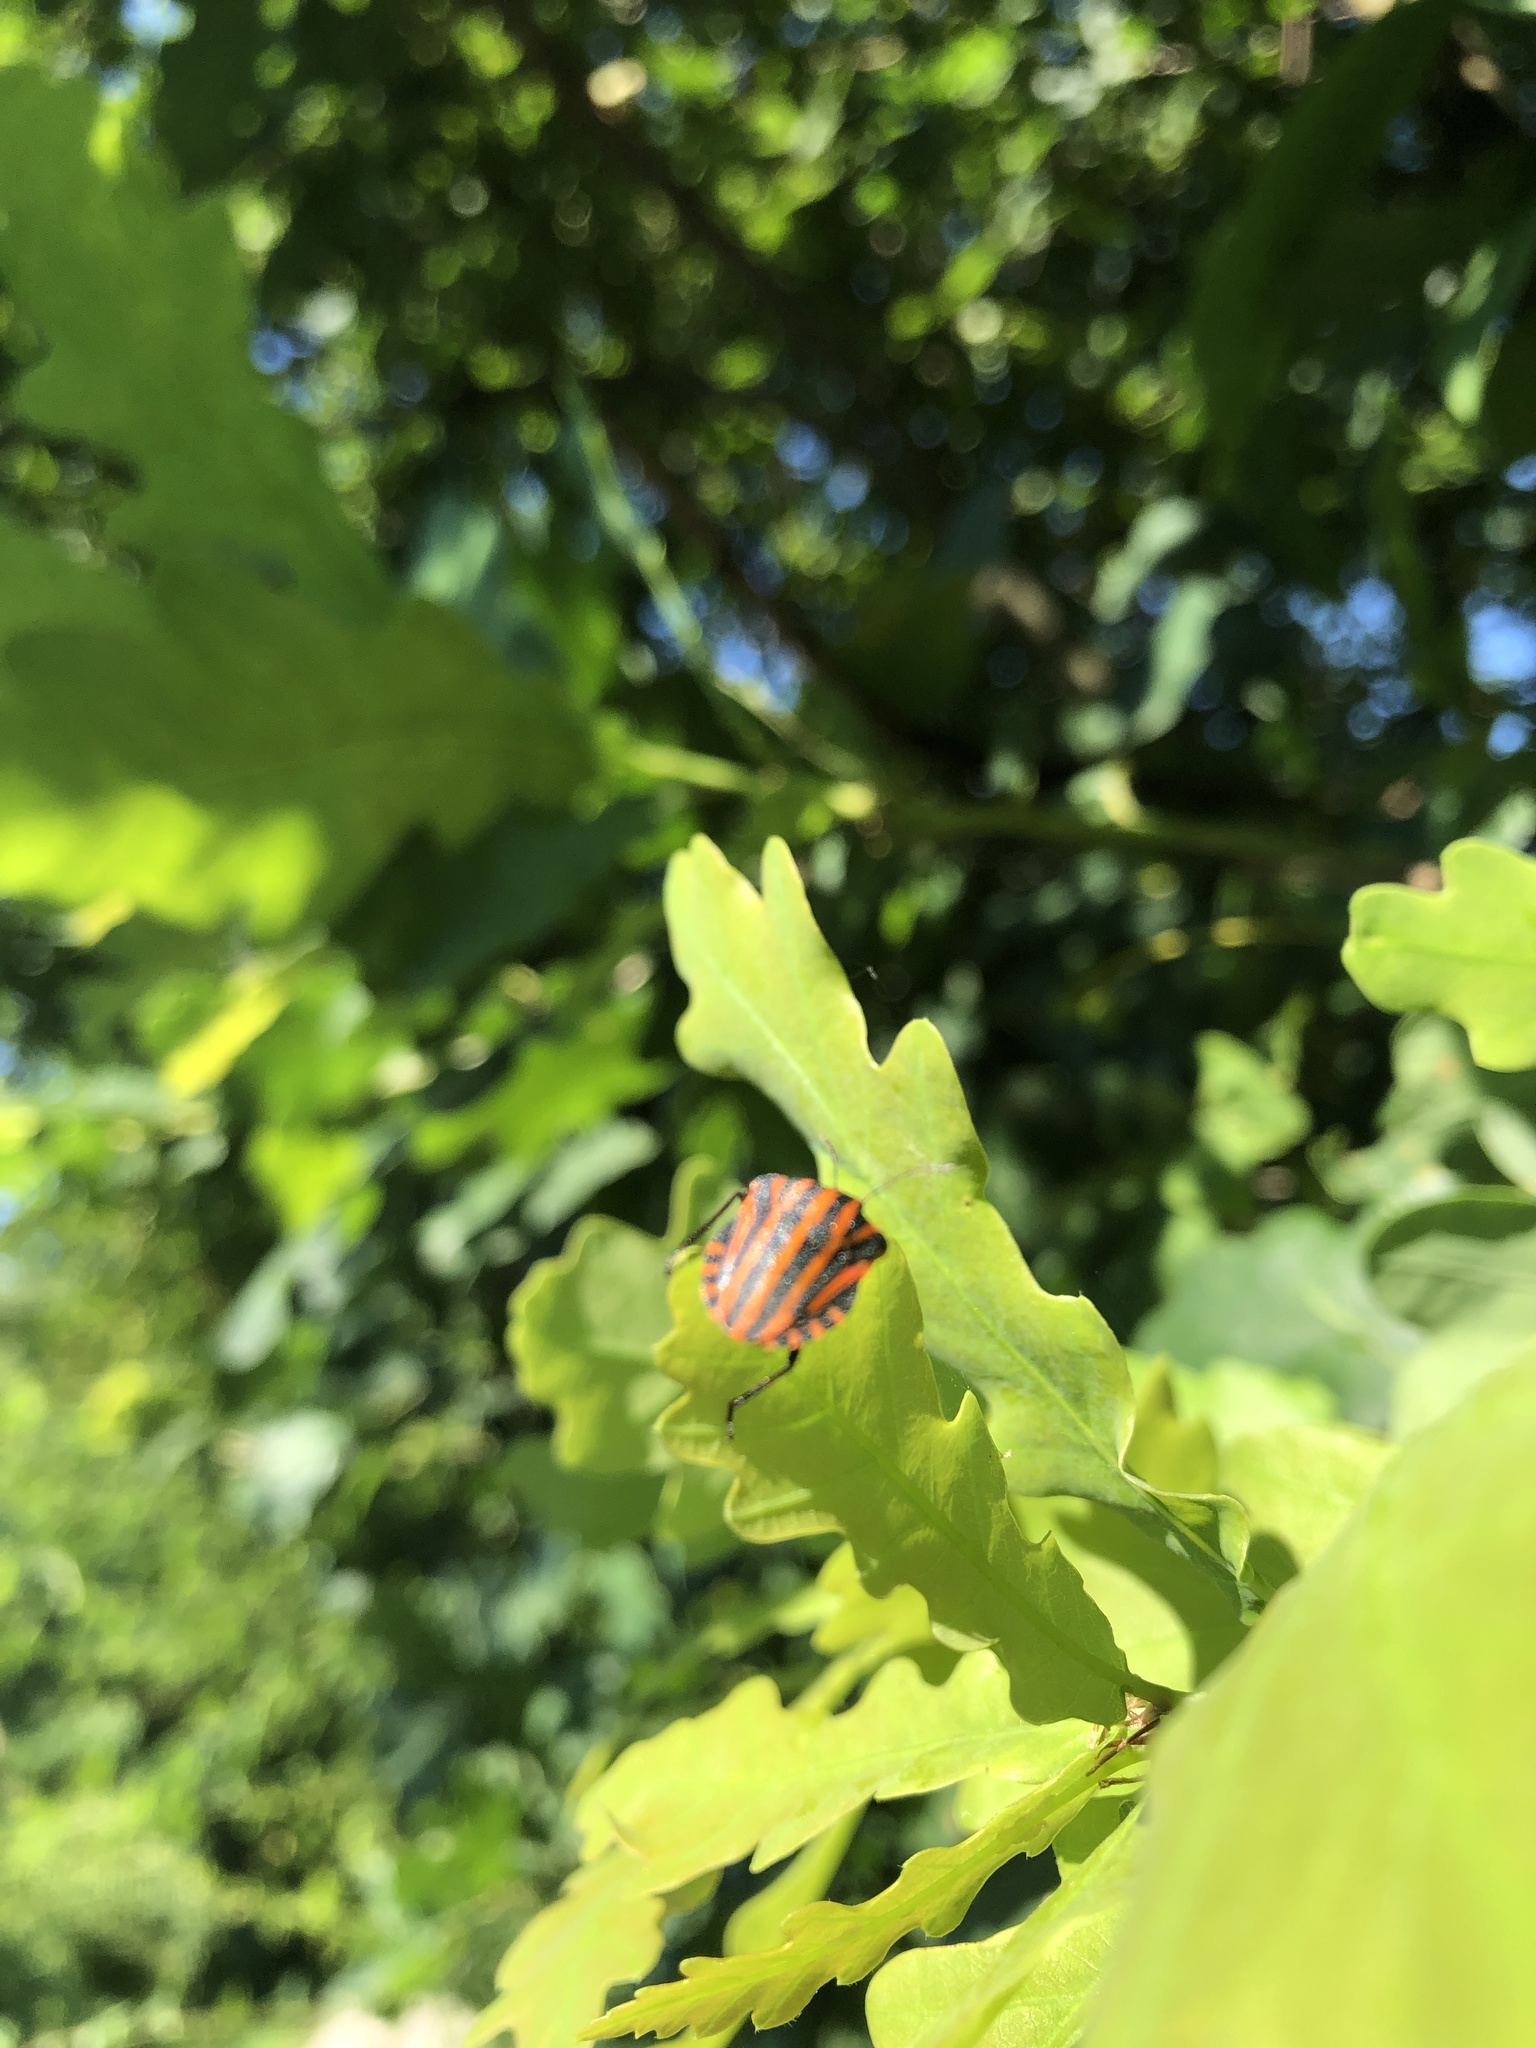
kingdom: Animalia
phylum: Arthropoda
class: Insecta
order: Hemiptera
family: Pentatomidae
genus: Graphosoma
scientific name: Graphosoma italicum
